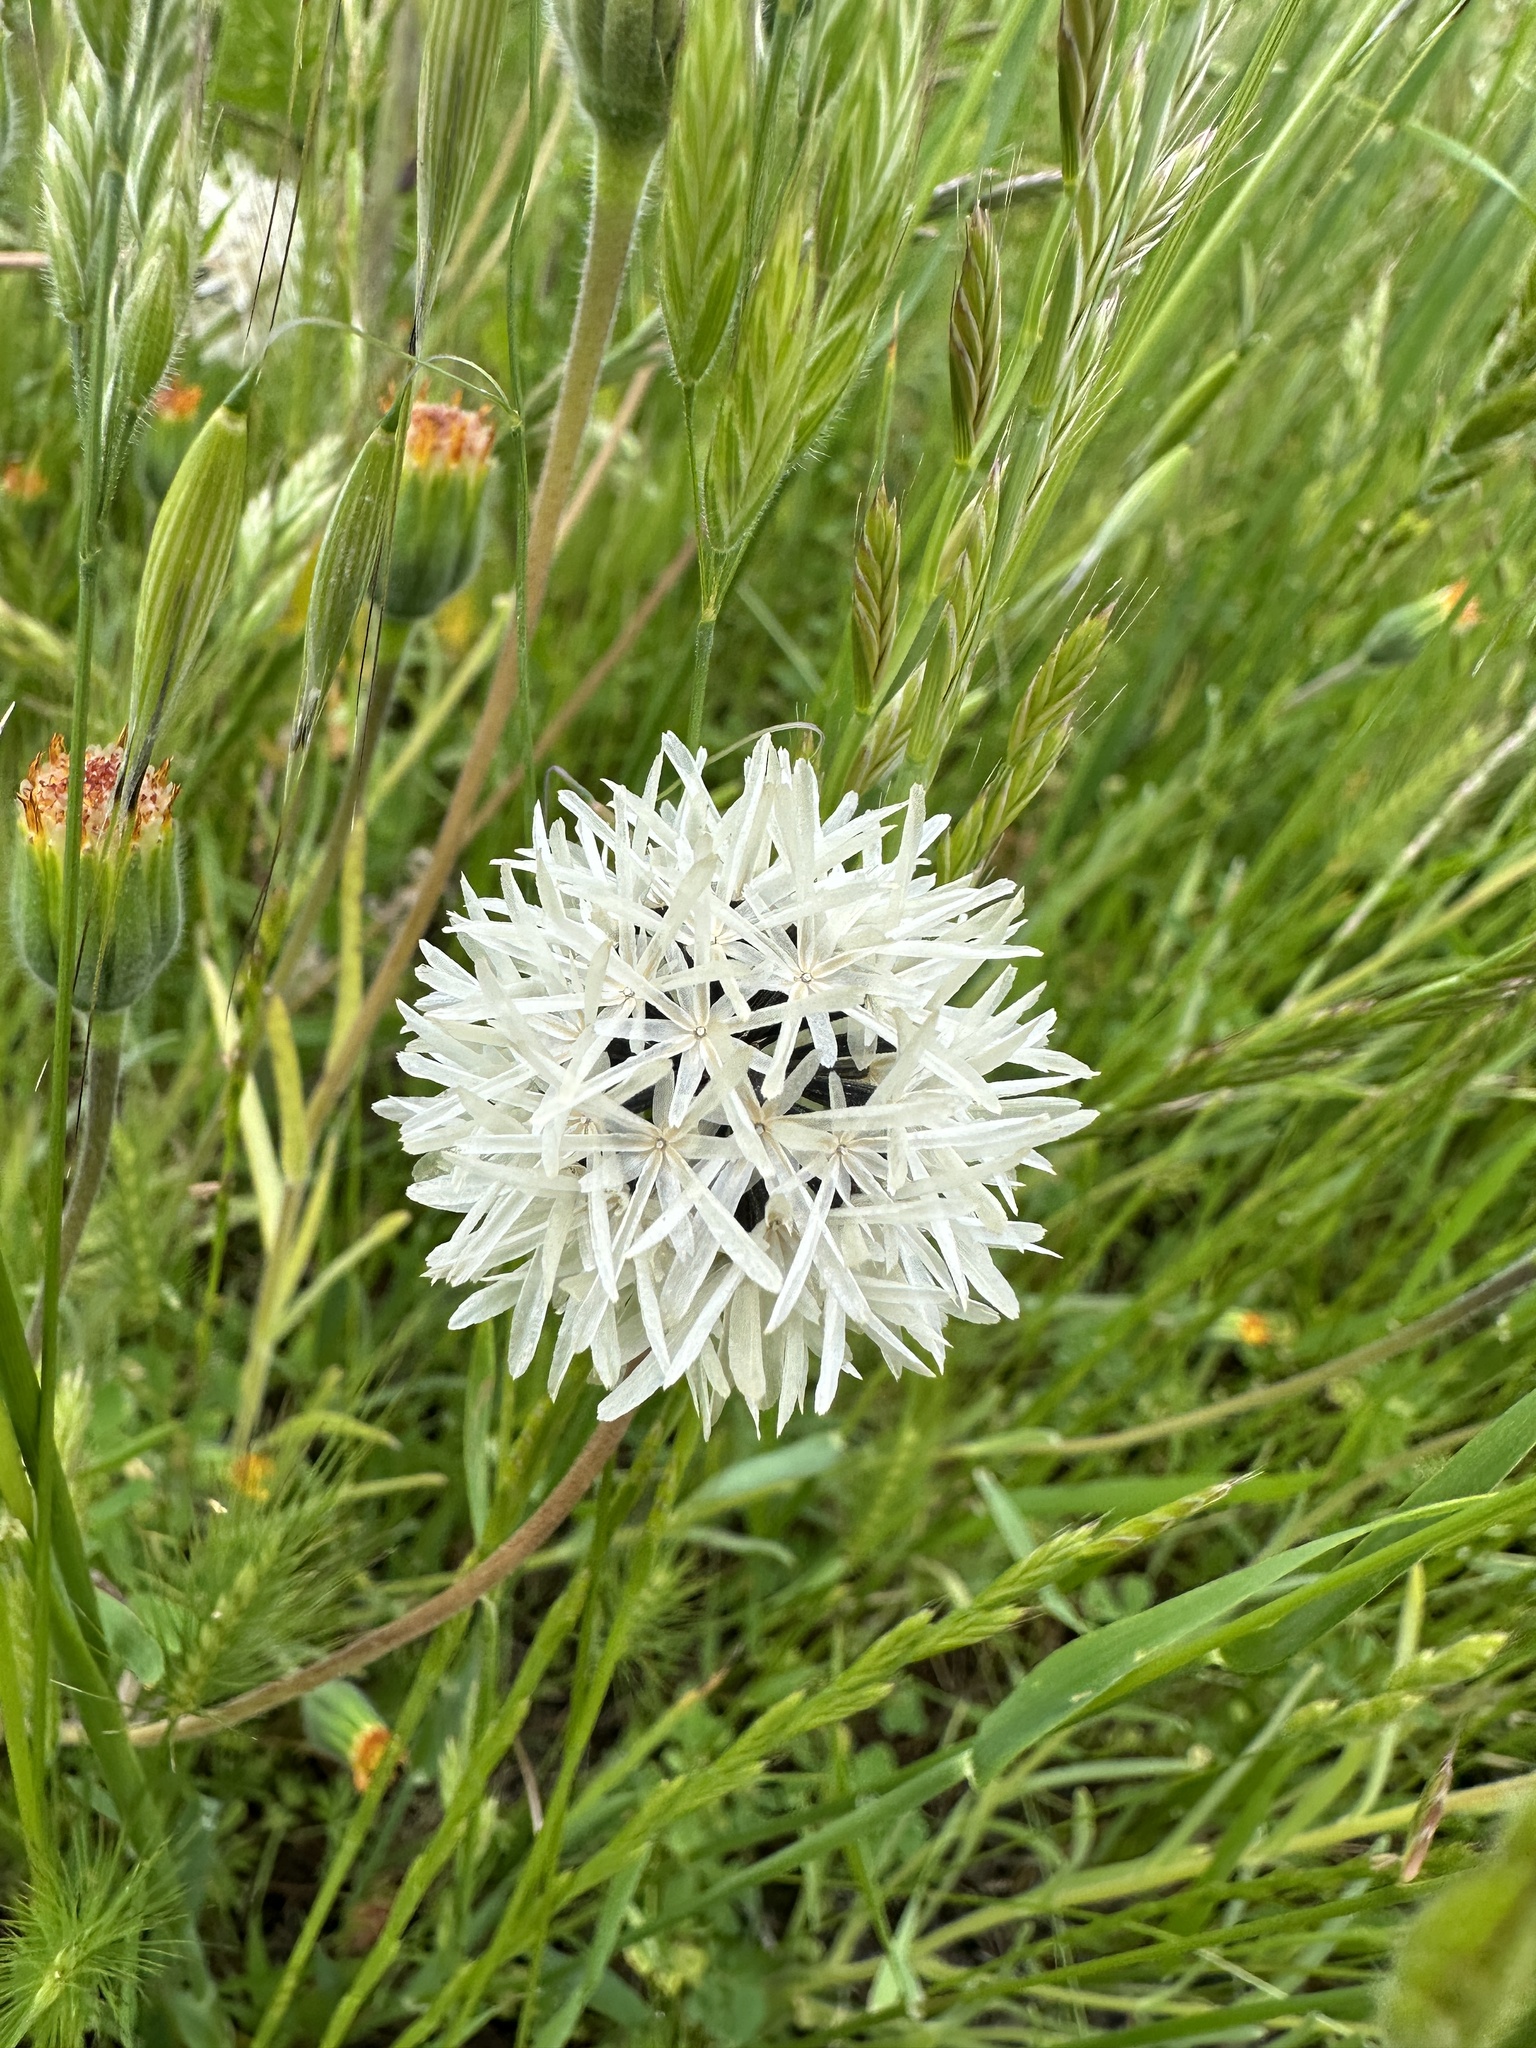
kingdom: Plantae
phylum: Tracheophyta
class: Magnoliopsida
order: Asterales
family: Asteraceae
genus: Achyrachaena
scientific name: Achyrachaena mollis
